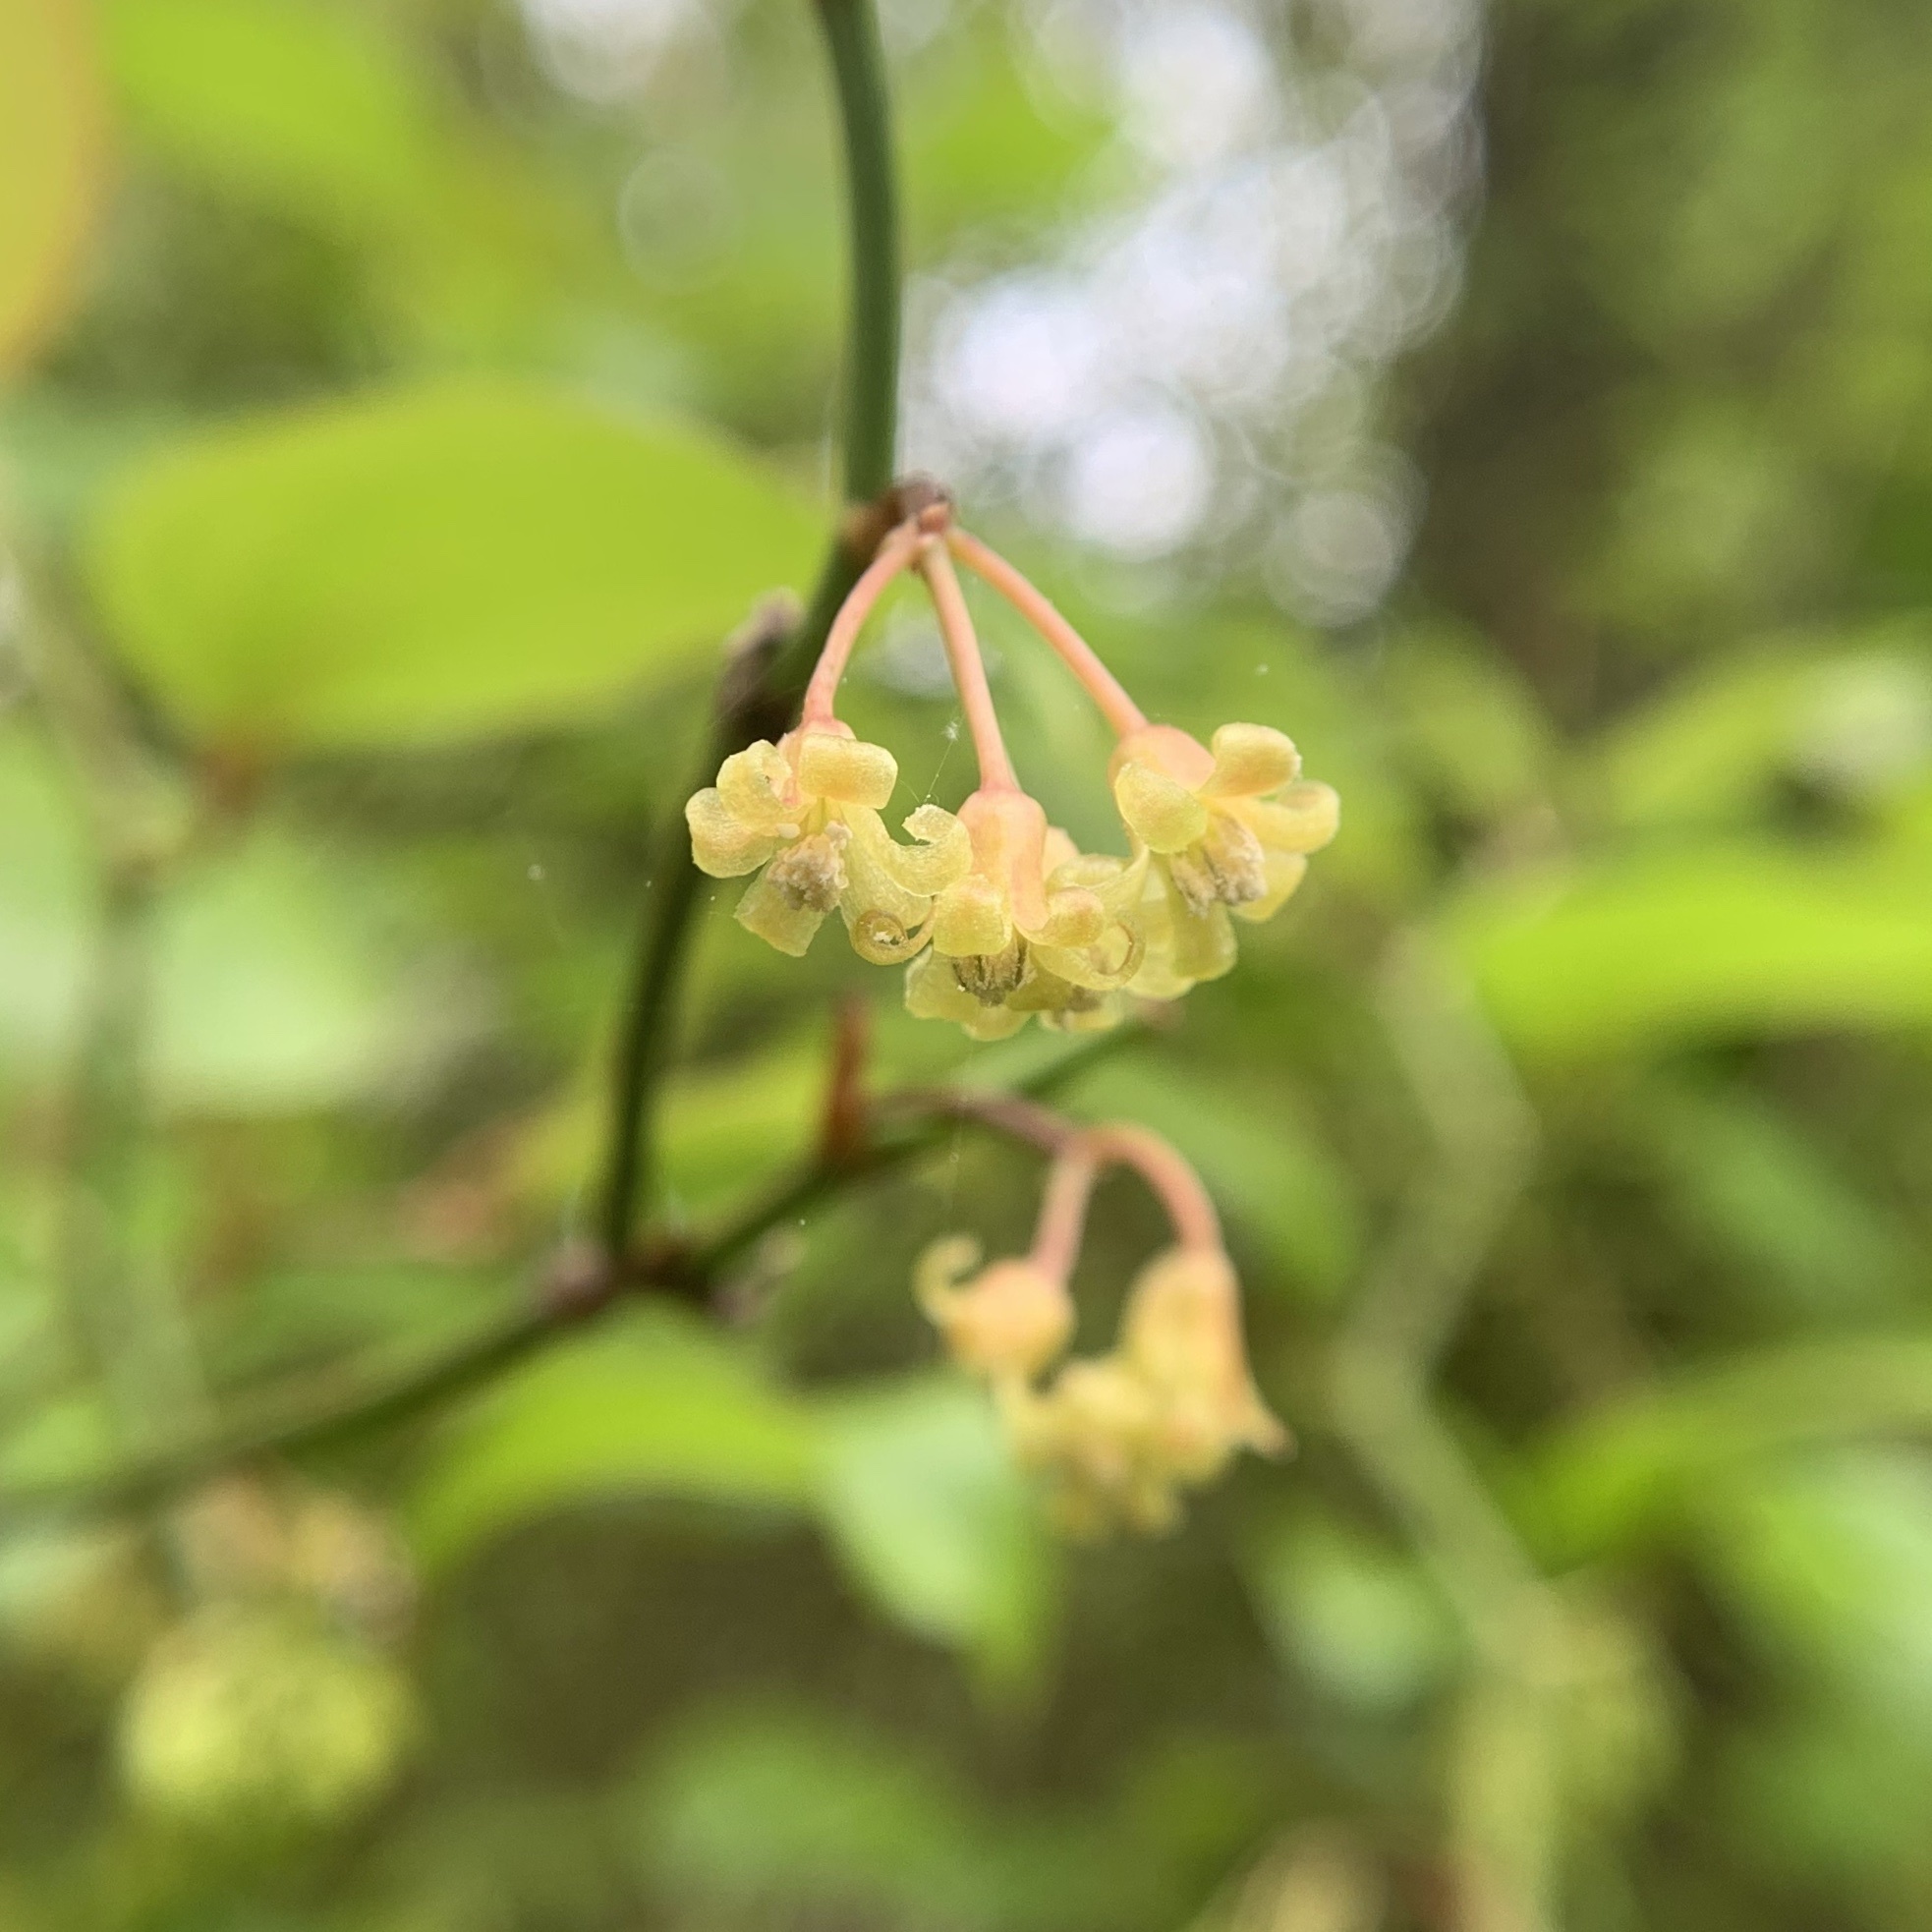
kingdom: Plantae
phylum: Tracheophyta
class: Liliopsida
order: Liliales
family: Smilacaceae
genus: Smilax
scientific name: Smilax rotundifolia
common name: Bullbriar
